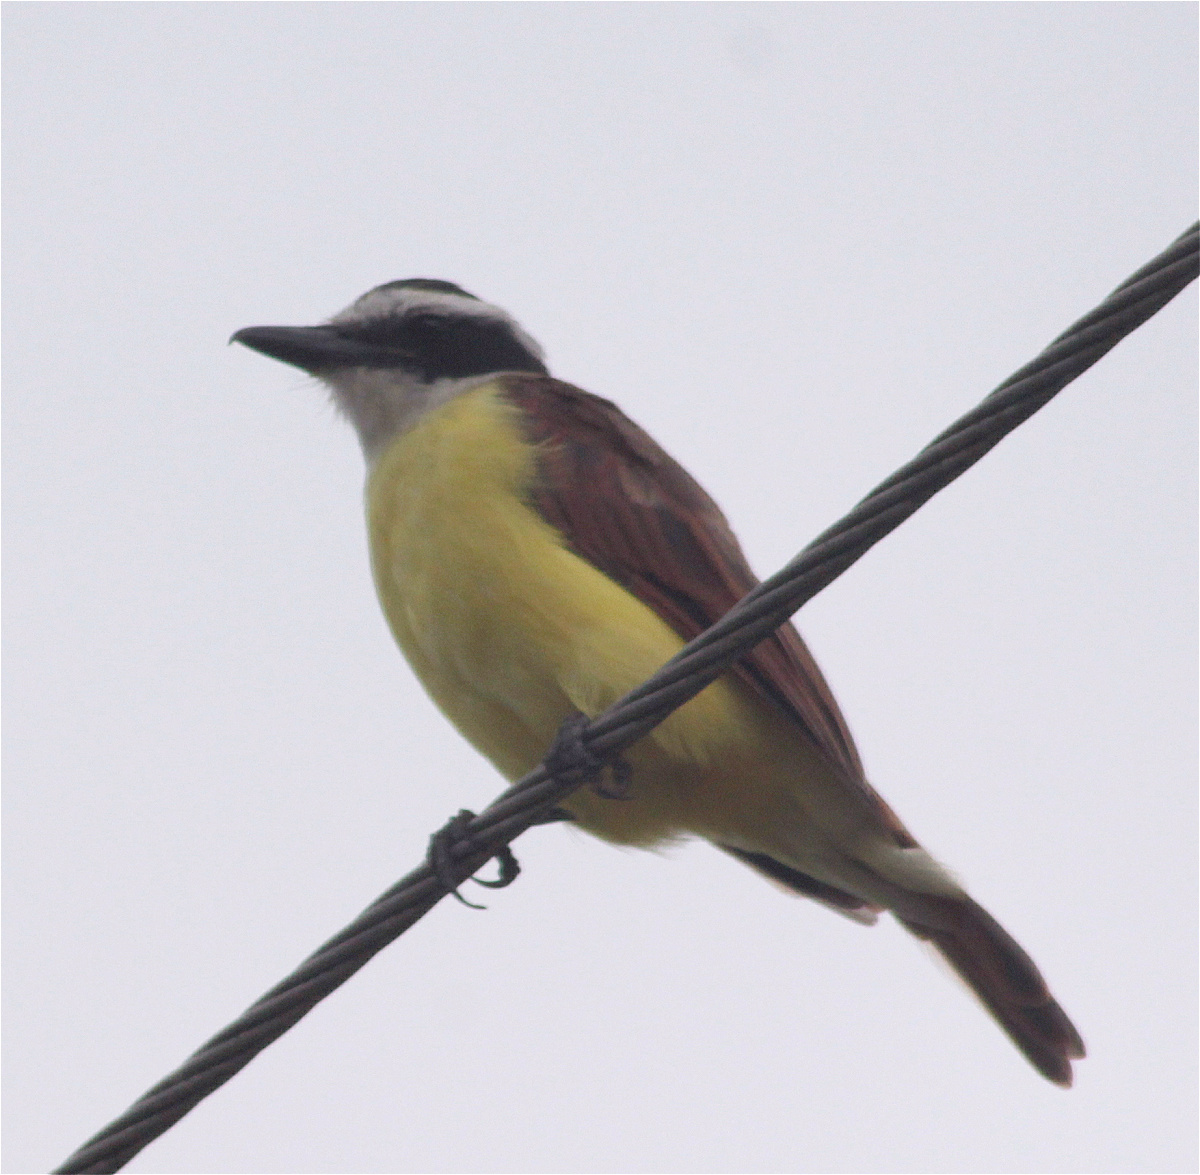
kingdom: Animalia
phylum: Chordata
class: Aves
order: Passeriformes
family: Tyrannidae
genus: Pitangus
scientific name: Pitangus sulphuratus
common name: Great kiskadee
